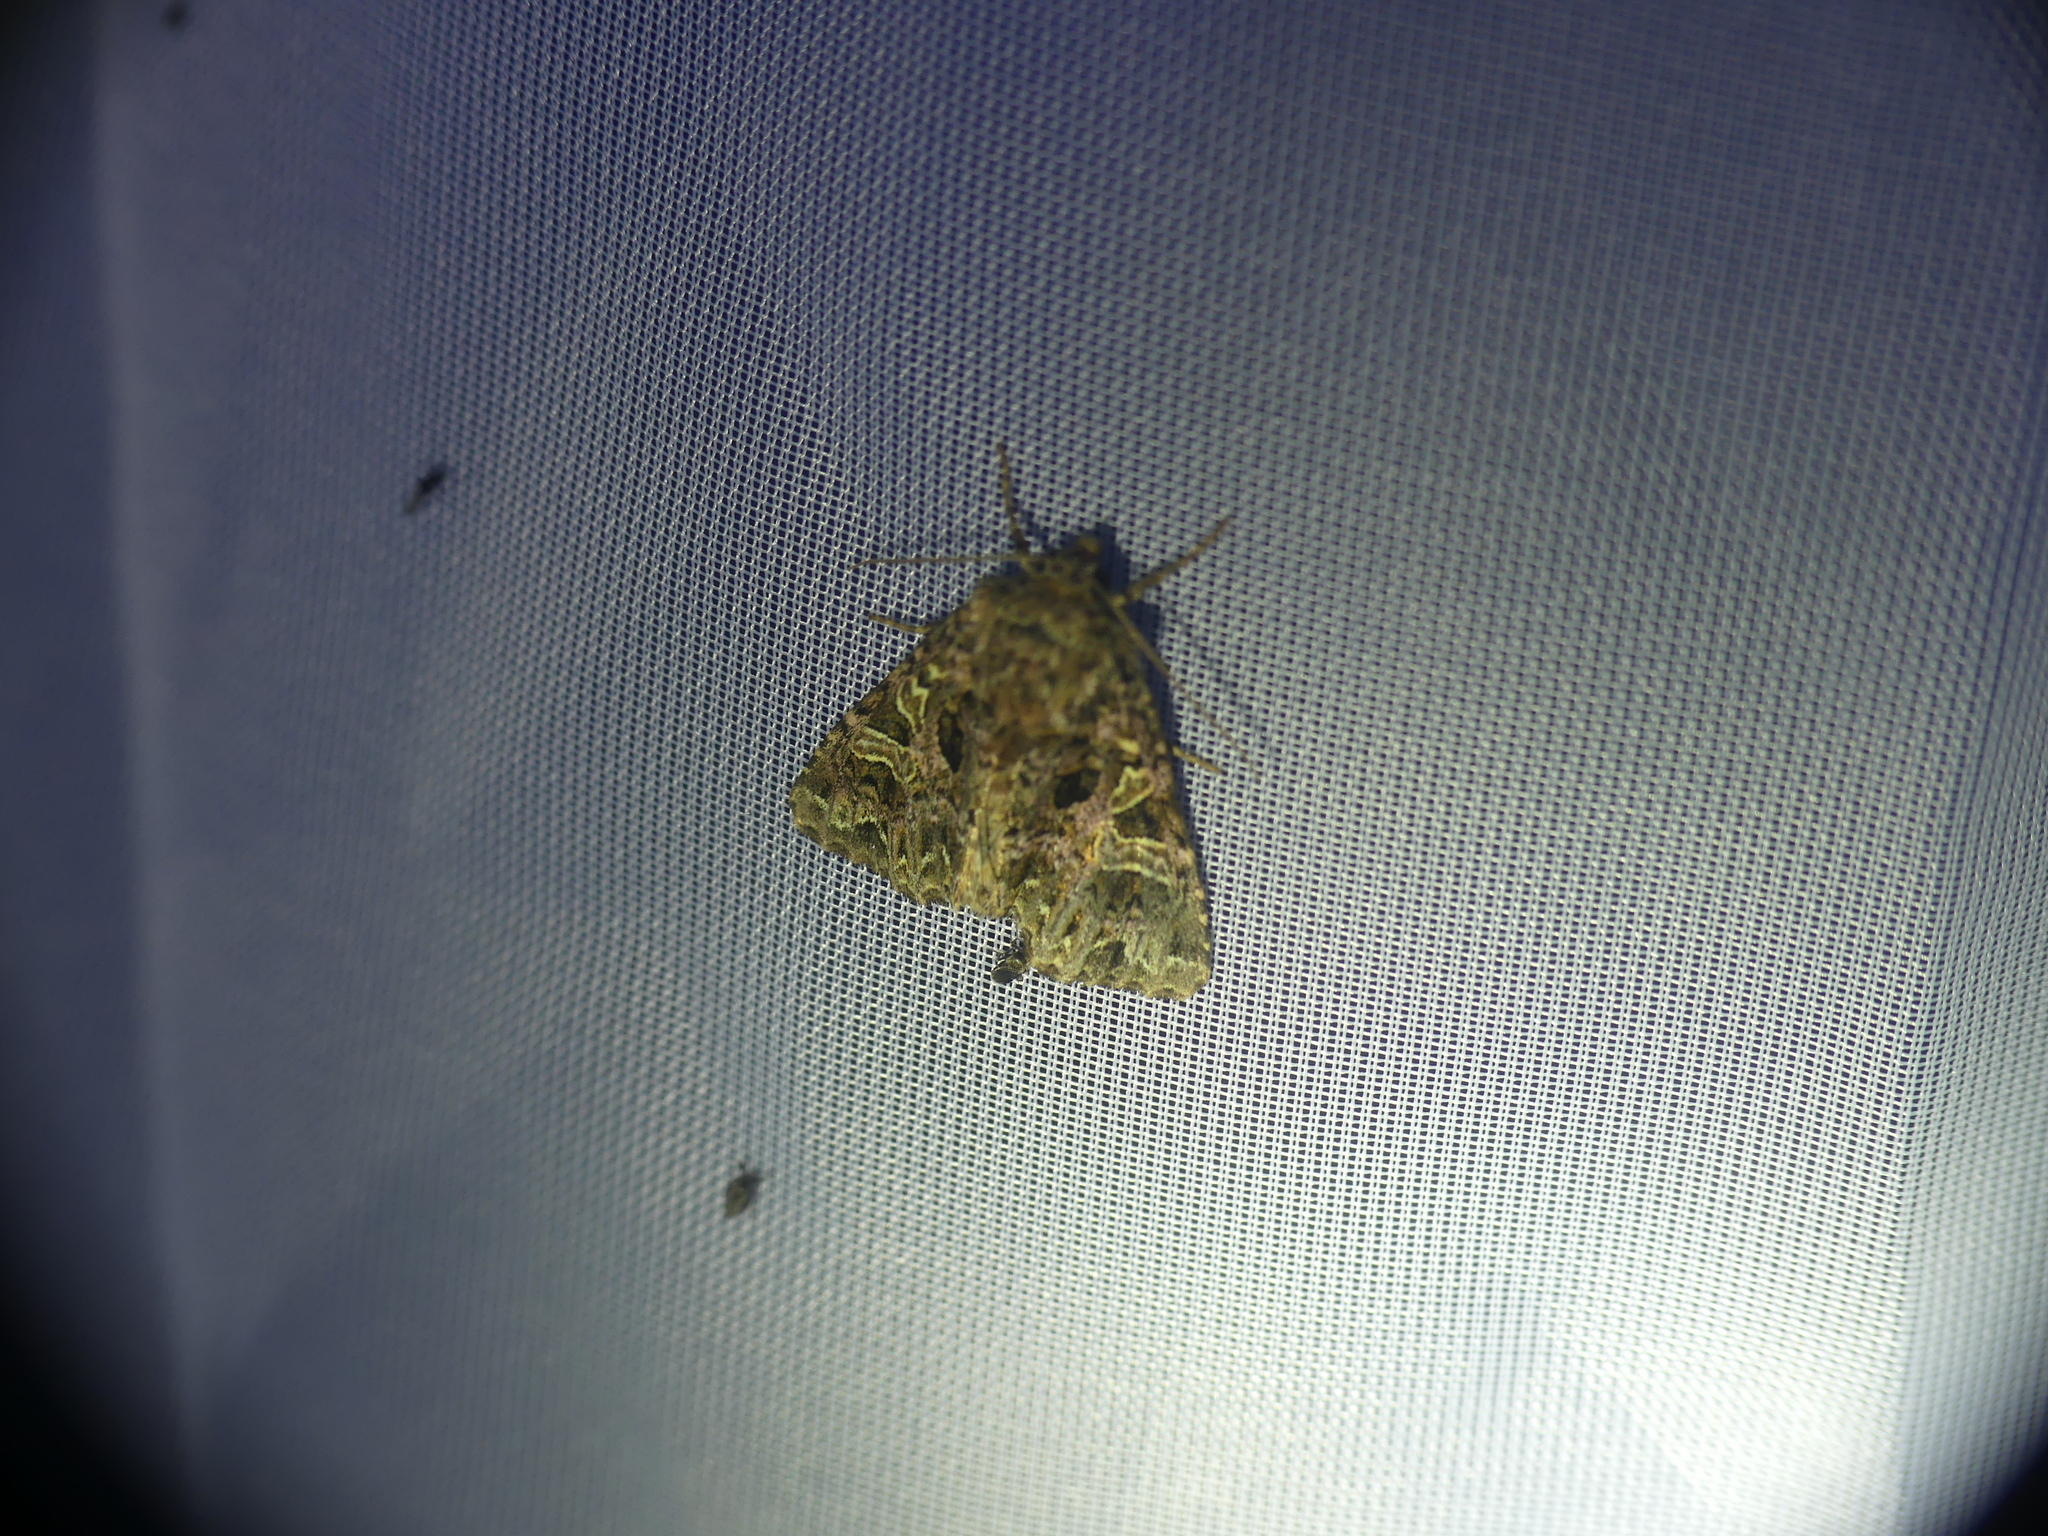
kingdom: Animalia
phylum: Arthropoda
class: Insecta
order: Lepidoptera
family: Noctuidae
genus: Sideridis
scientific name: Sideridis rivularis
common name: Campion
